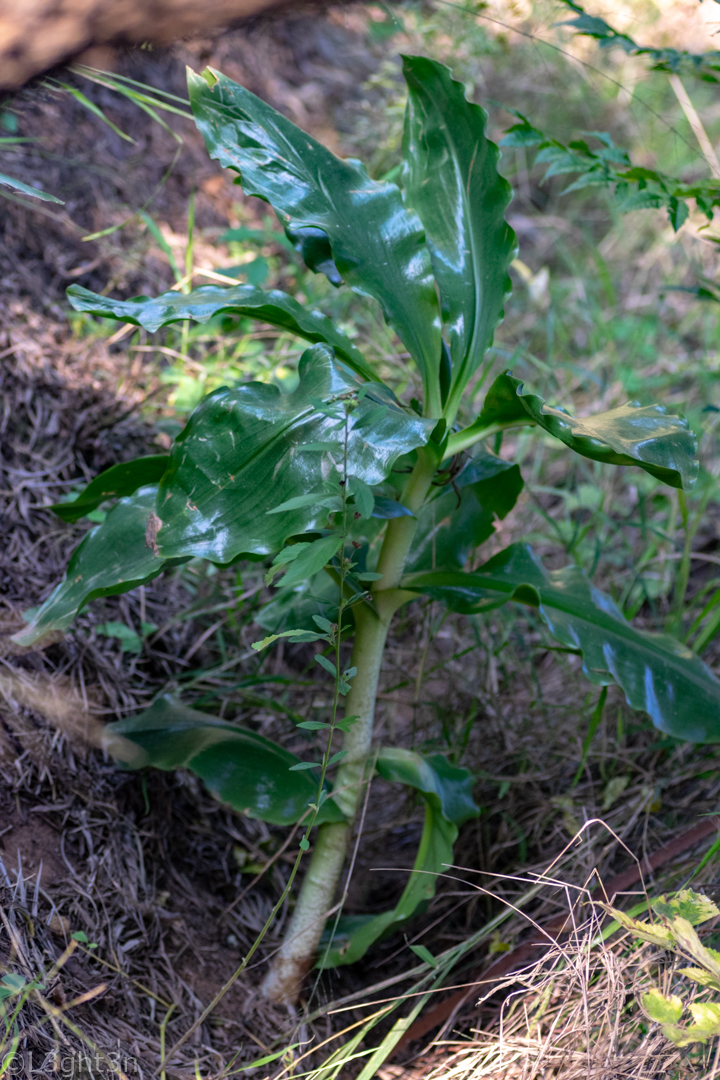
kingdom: Plantae
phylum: Tracheophyta
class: Liliopsida
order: Asparagales
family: Amaryllidaceae
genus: Scadoxus
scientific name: Scadoxus puniceus
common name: Royal-paintbrush
